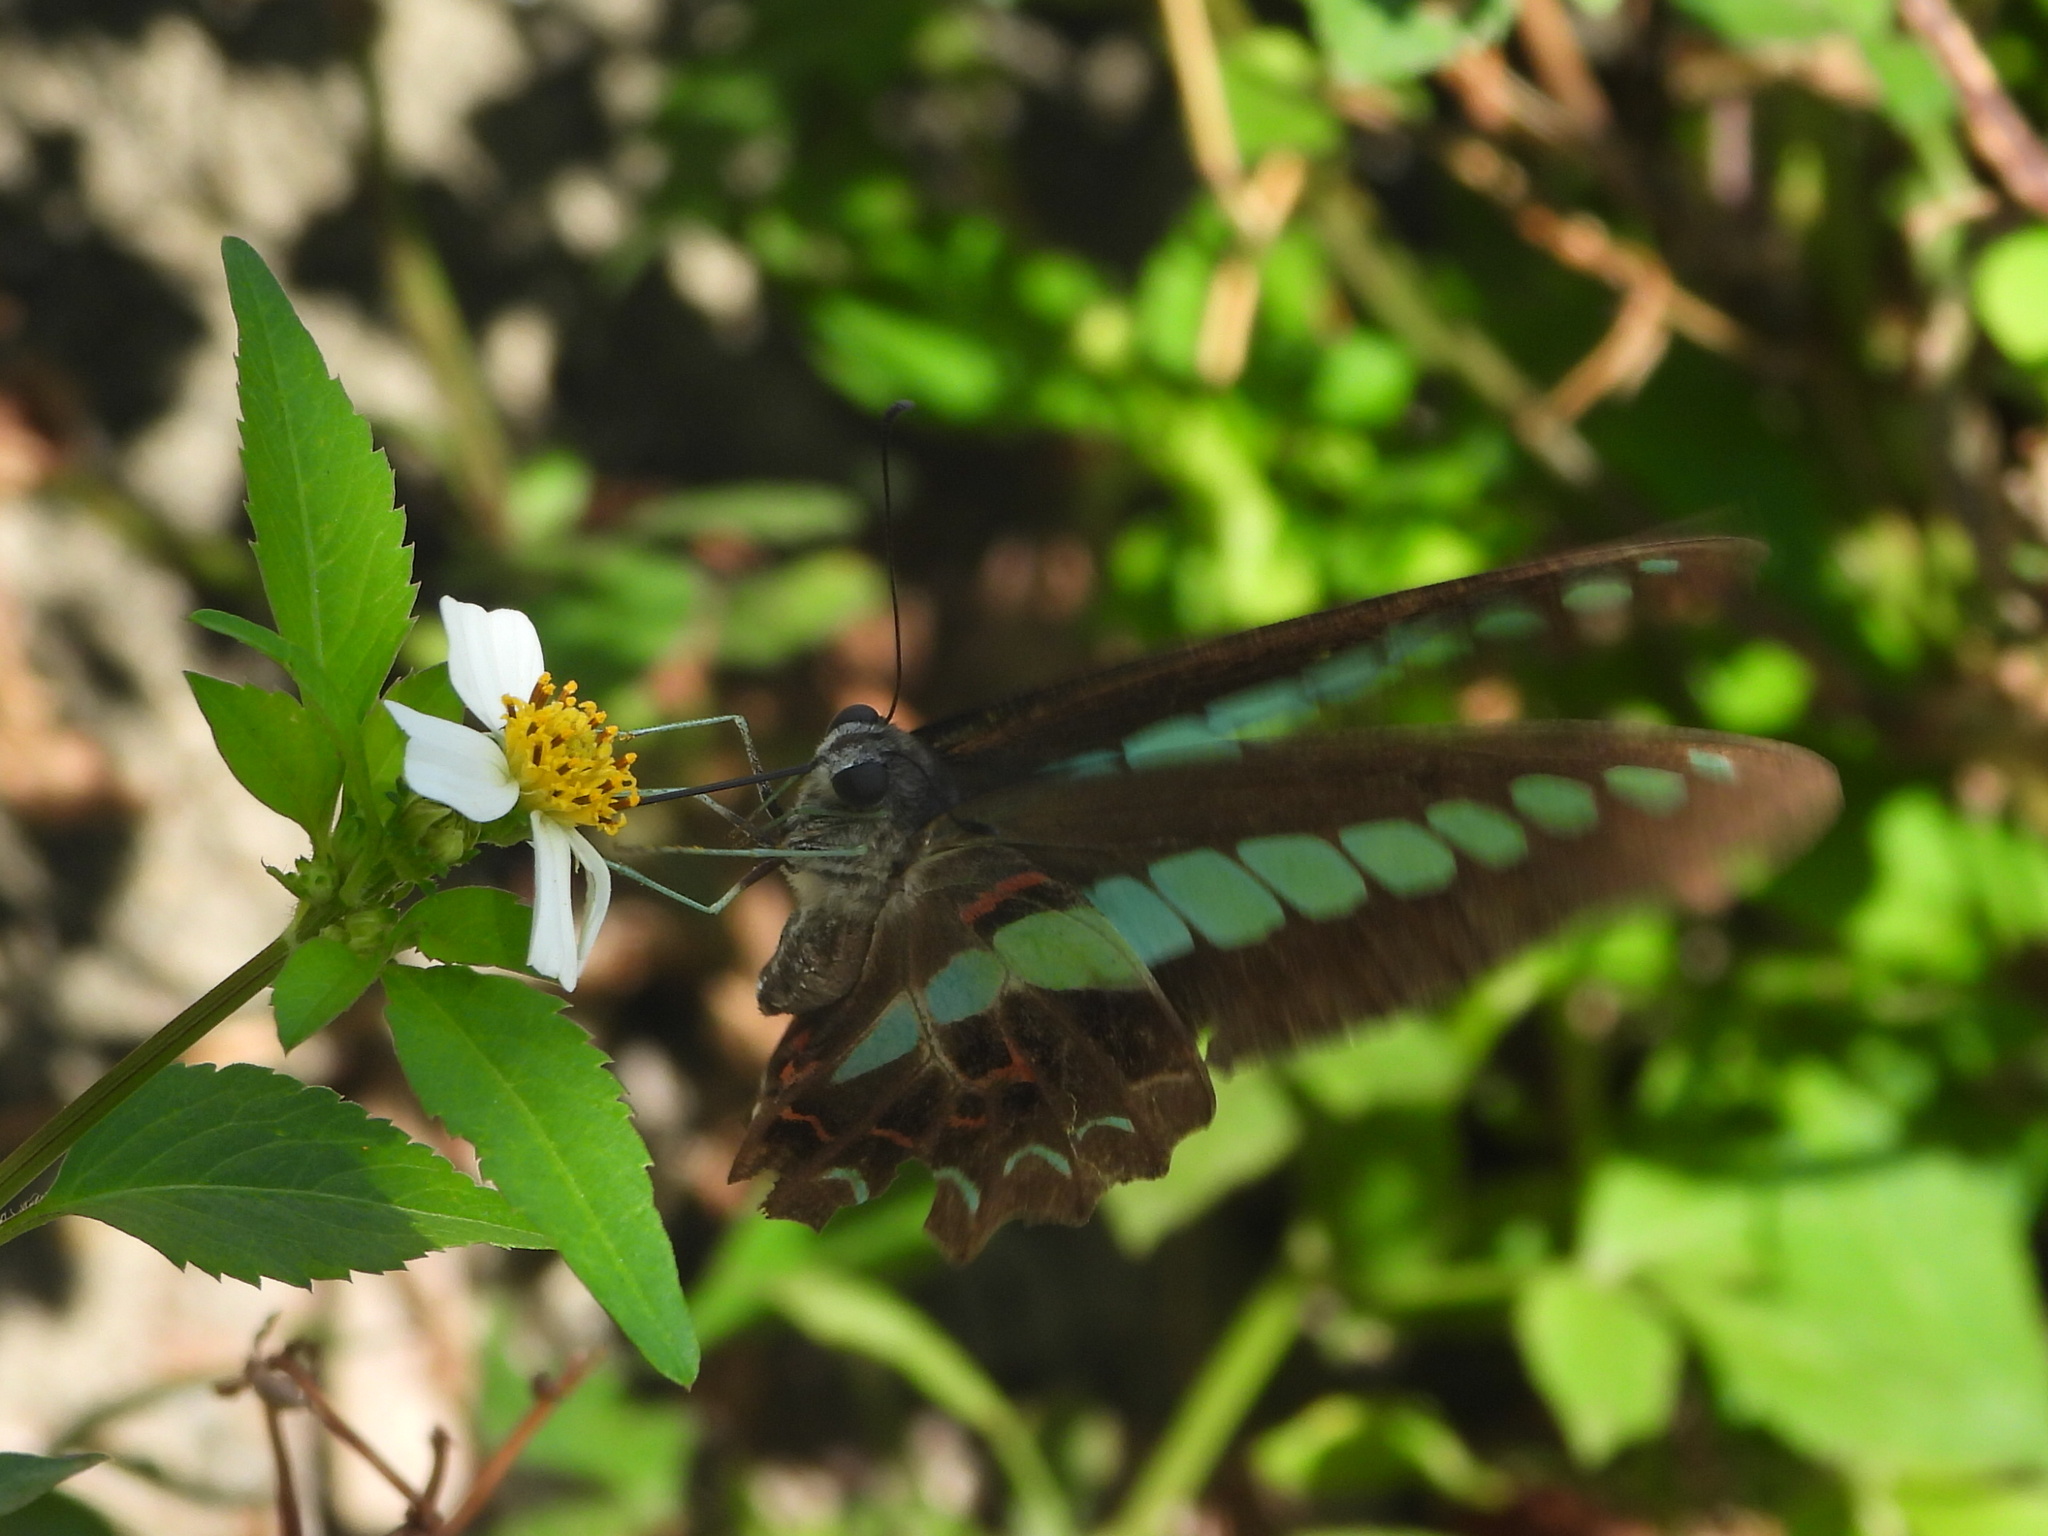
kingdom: Fungi
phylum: Ascomycota
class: Sordariomycetes
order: Microascales
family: Microascaceae
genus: Graphium
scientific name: Graphium sarpedon
